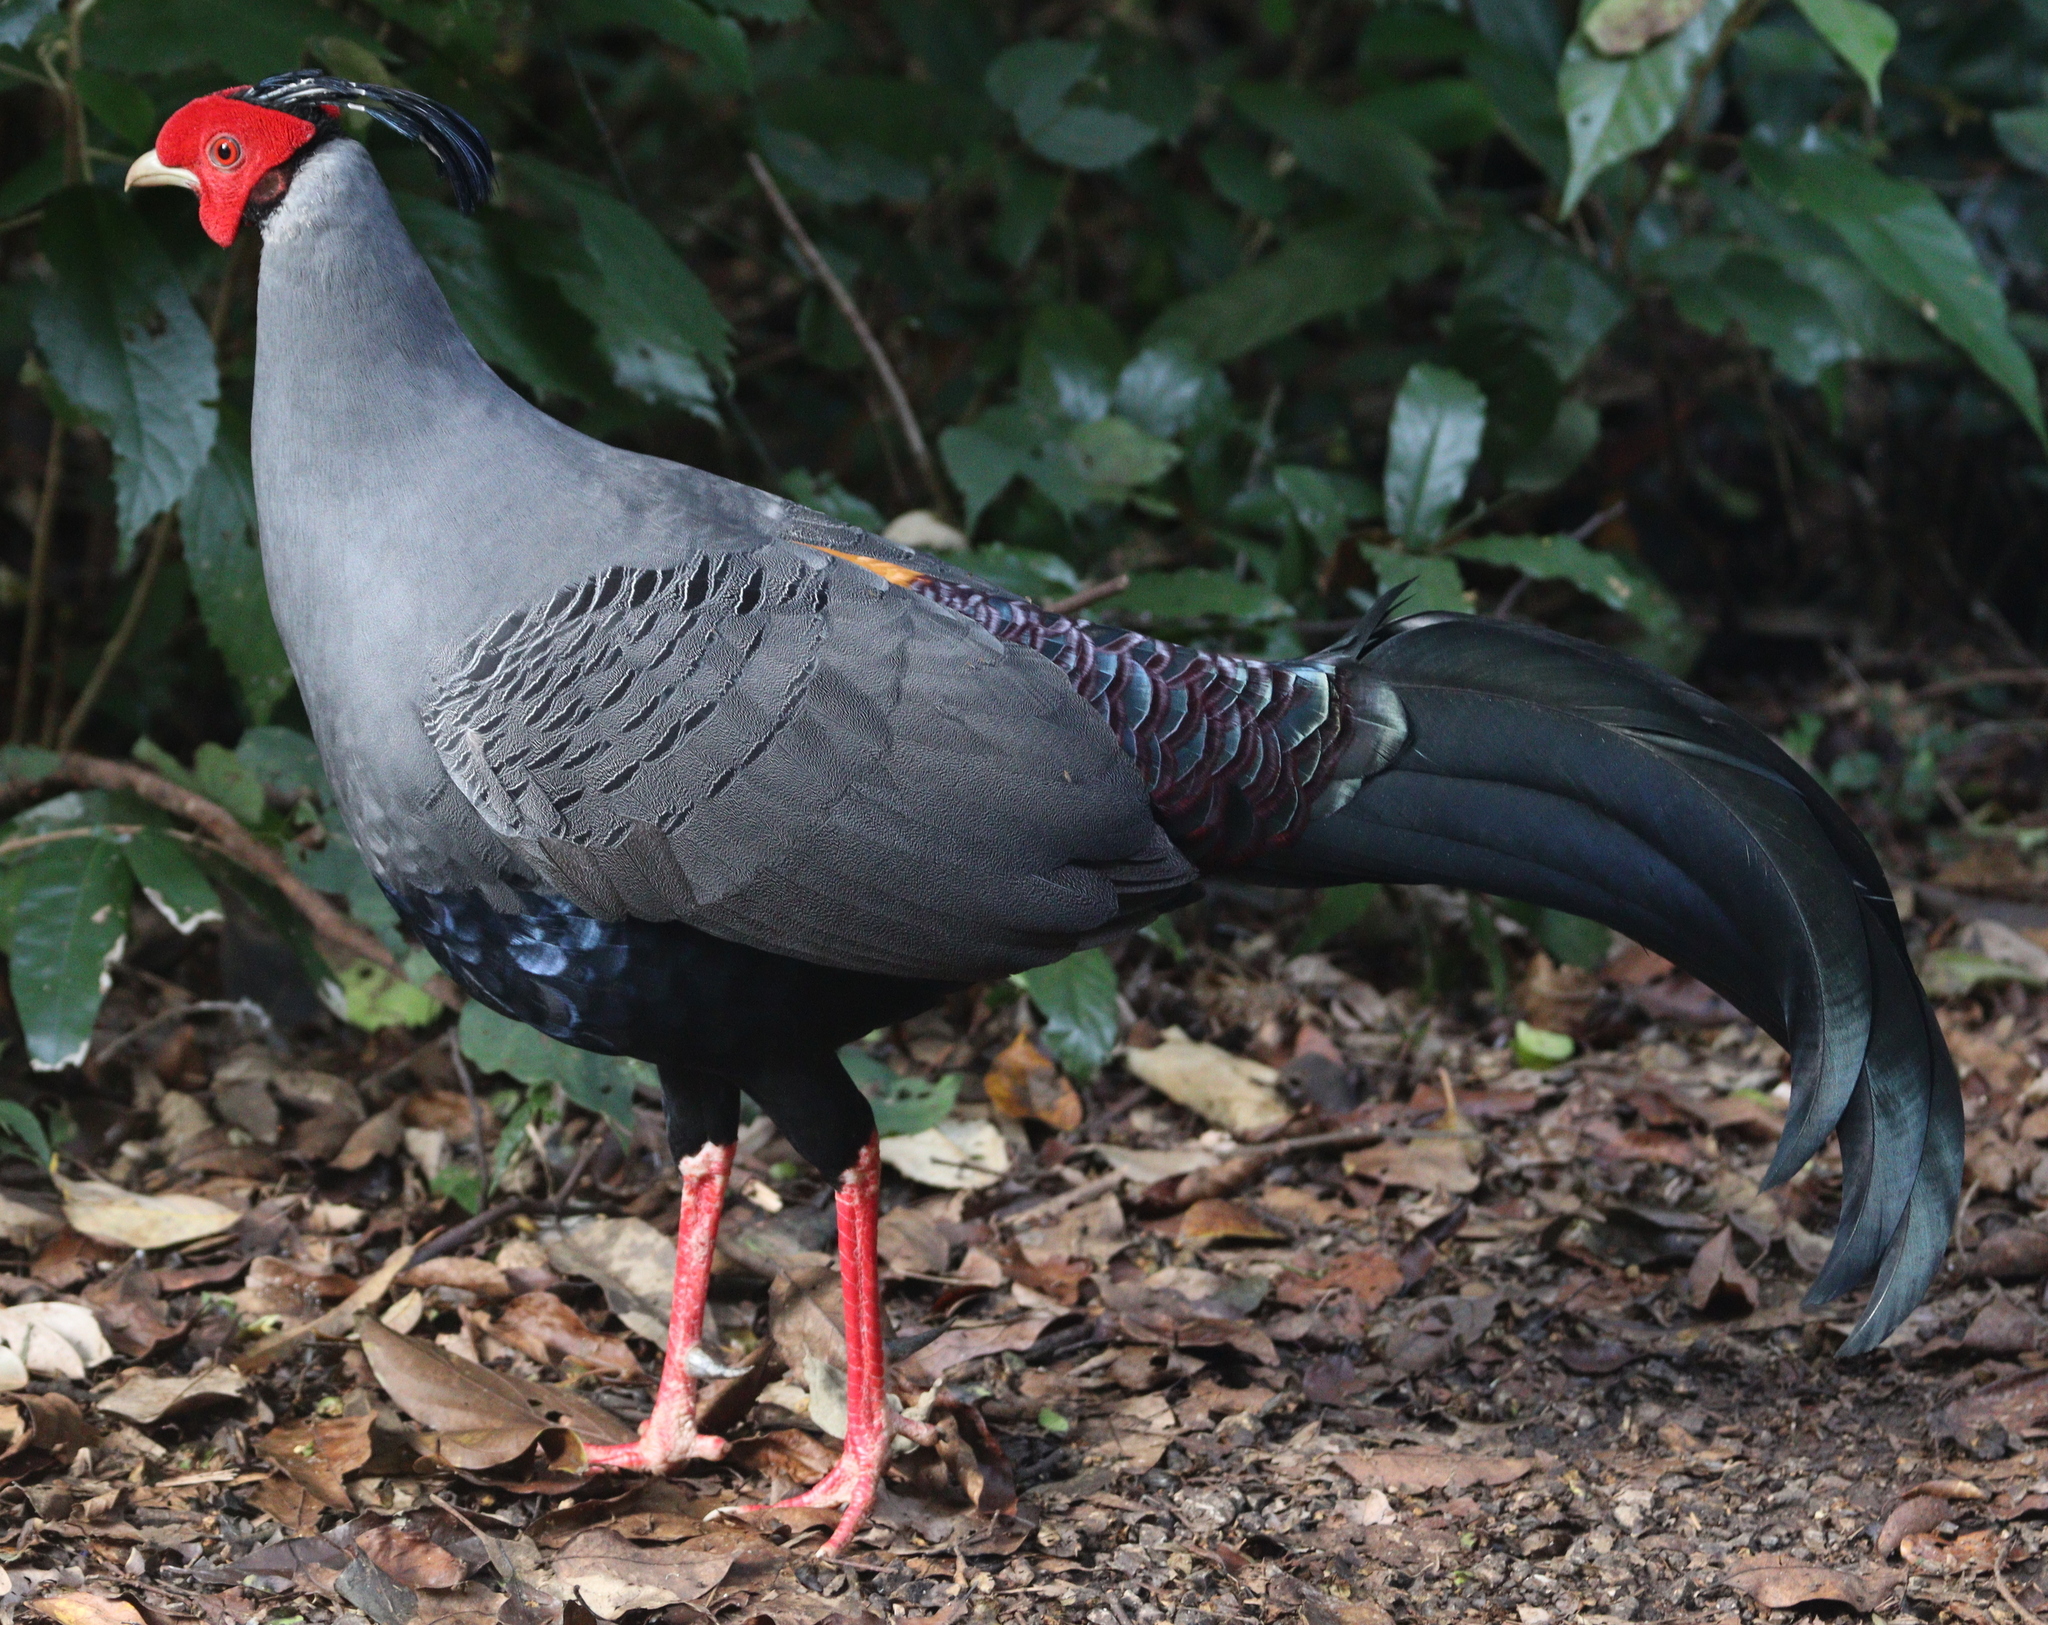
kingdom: Animalia
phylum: Chordata
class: Aves
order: Galliformes
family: Phasianidae
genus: Lophura
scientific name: Lophura diardi
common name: Siamese fireback
